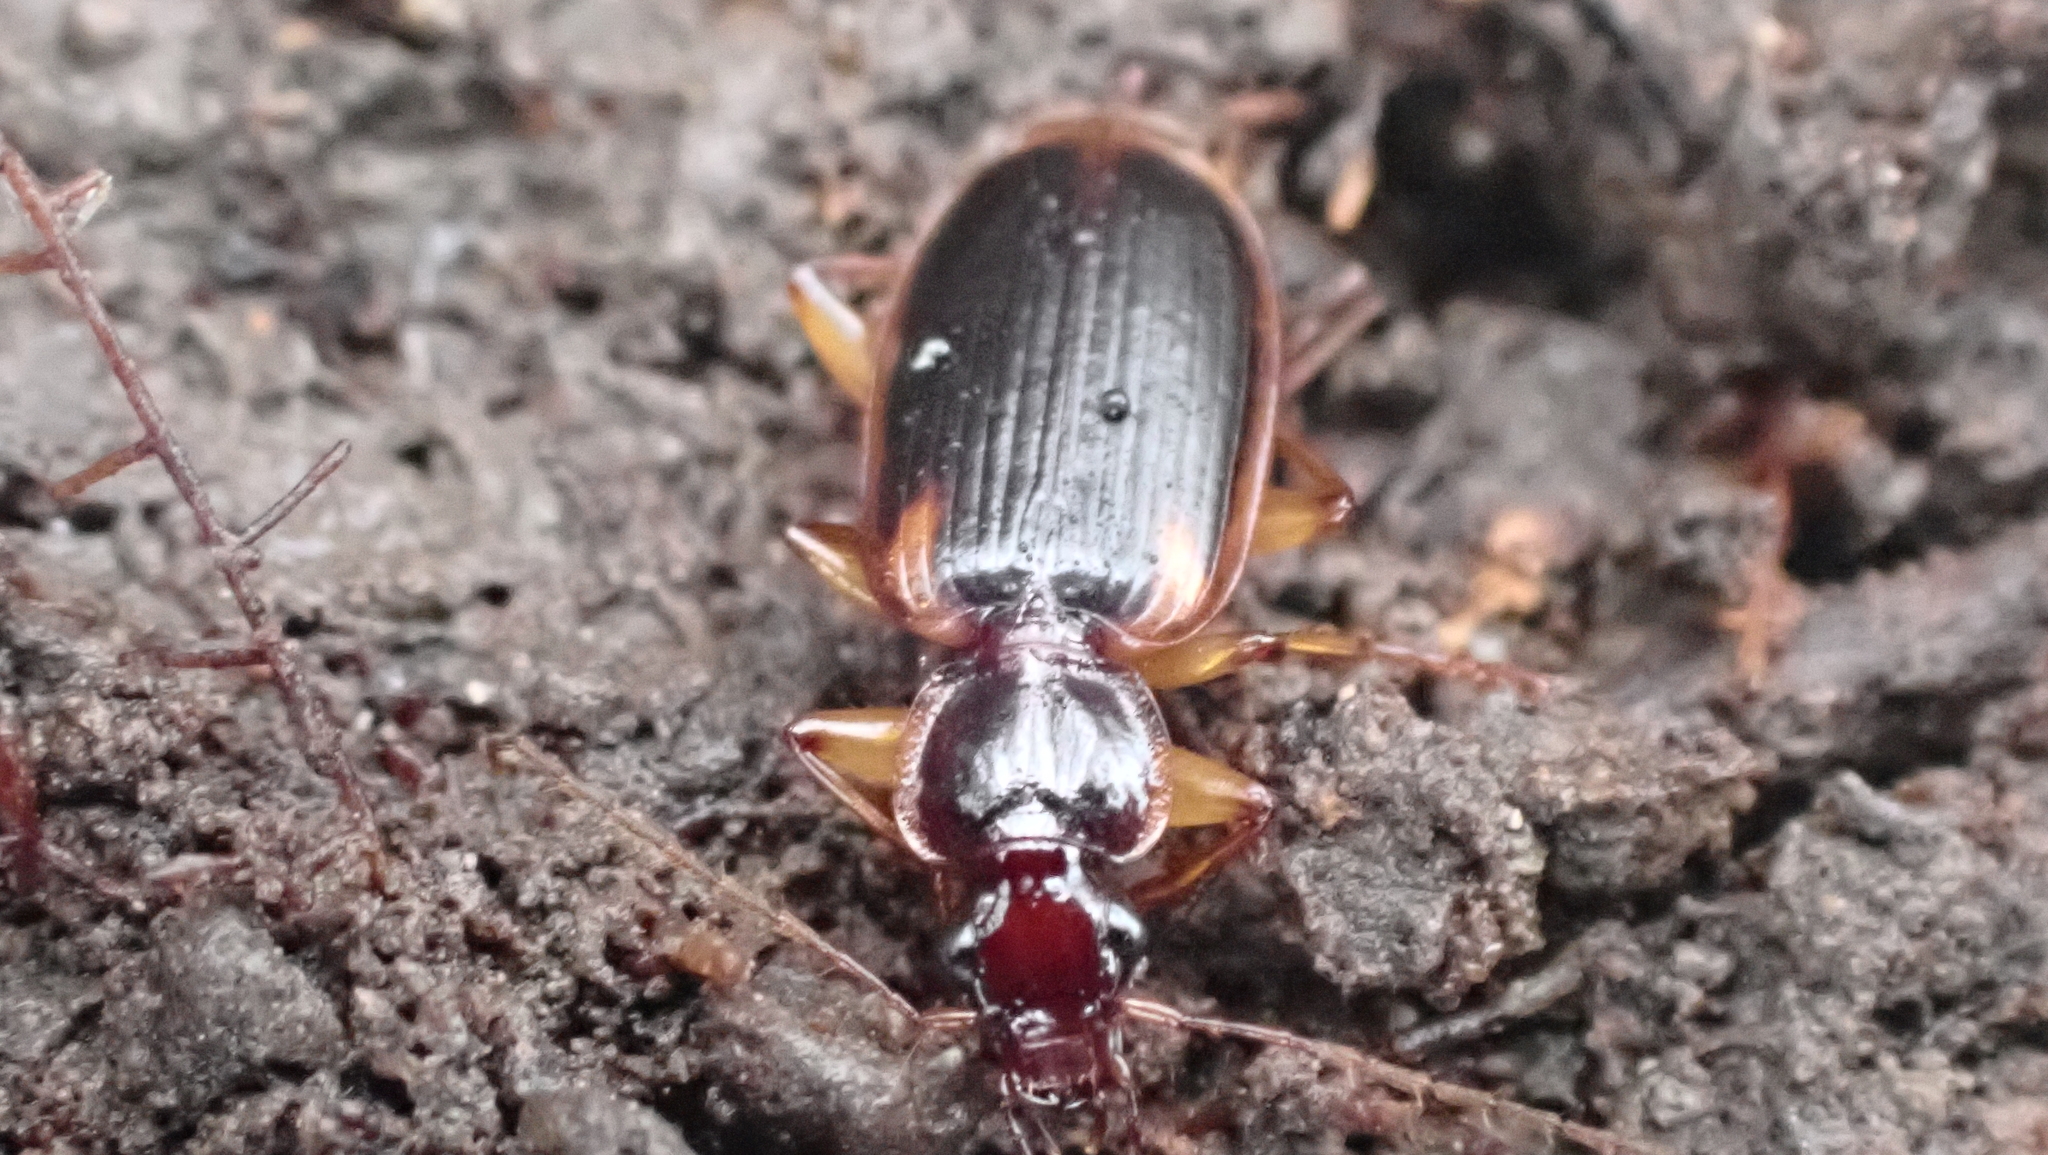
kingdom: Animalia
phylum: Arthropoda
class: Insecta
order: Coleoptera
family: Carabidae
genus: Pinacodera
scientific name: Pinacodera limbata
